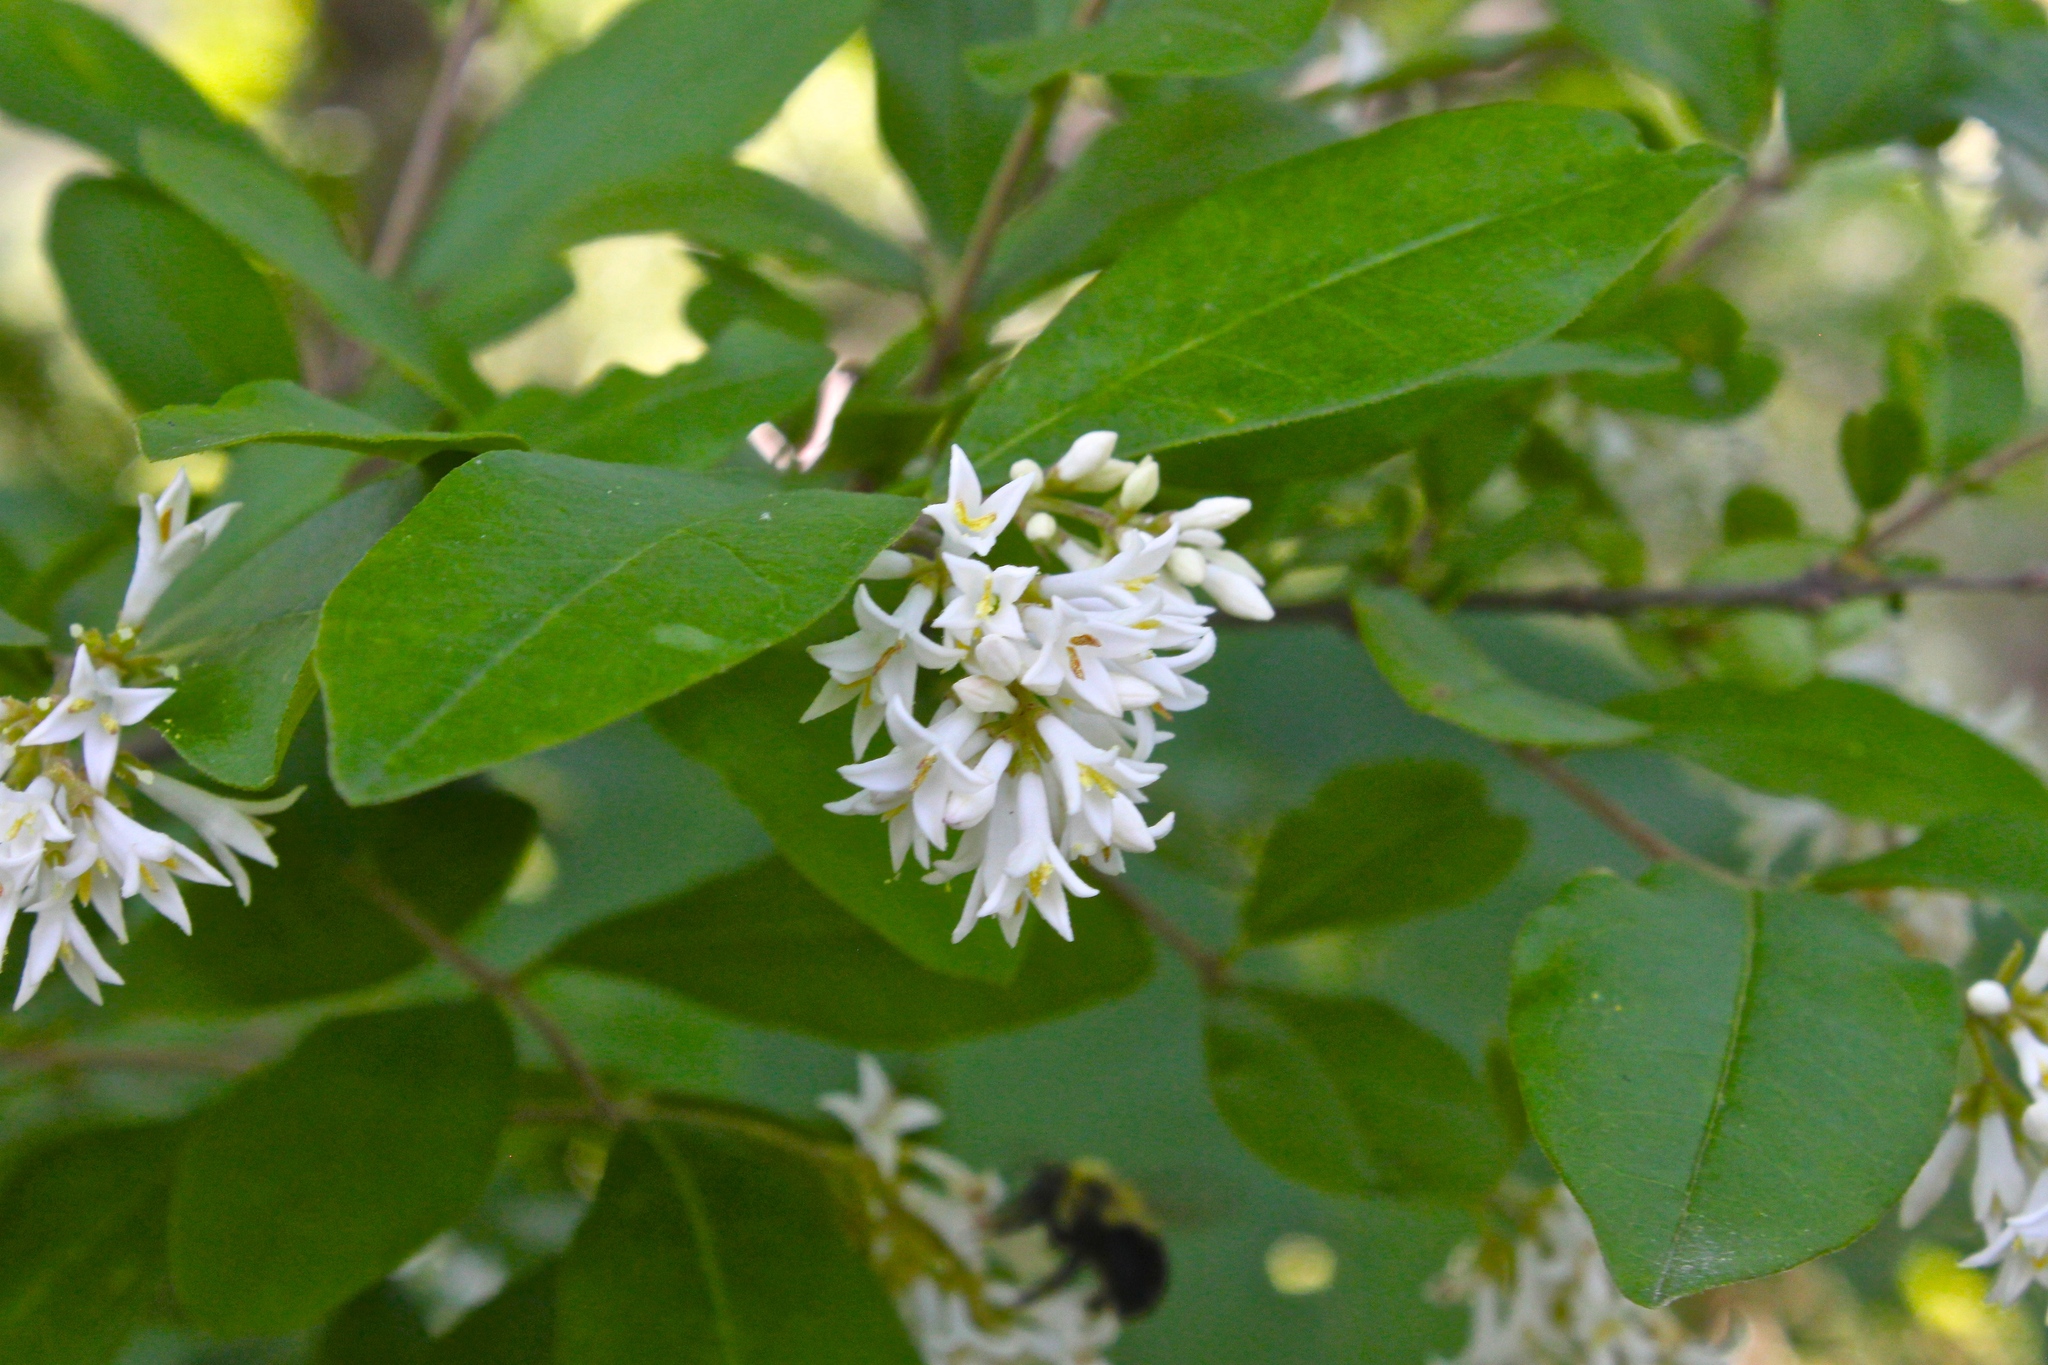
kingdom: Plantae
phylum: Tracheophyta
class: Magnoliopsida
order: Lamiales
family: Oleaceae
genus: Ligustrum
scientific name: Ligustrum obtusifolium
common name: Border privet
